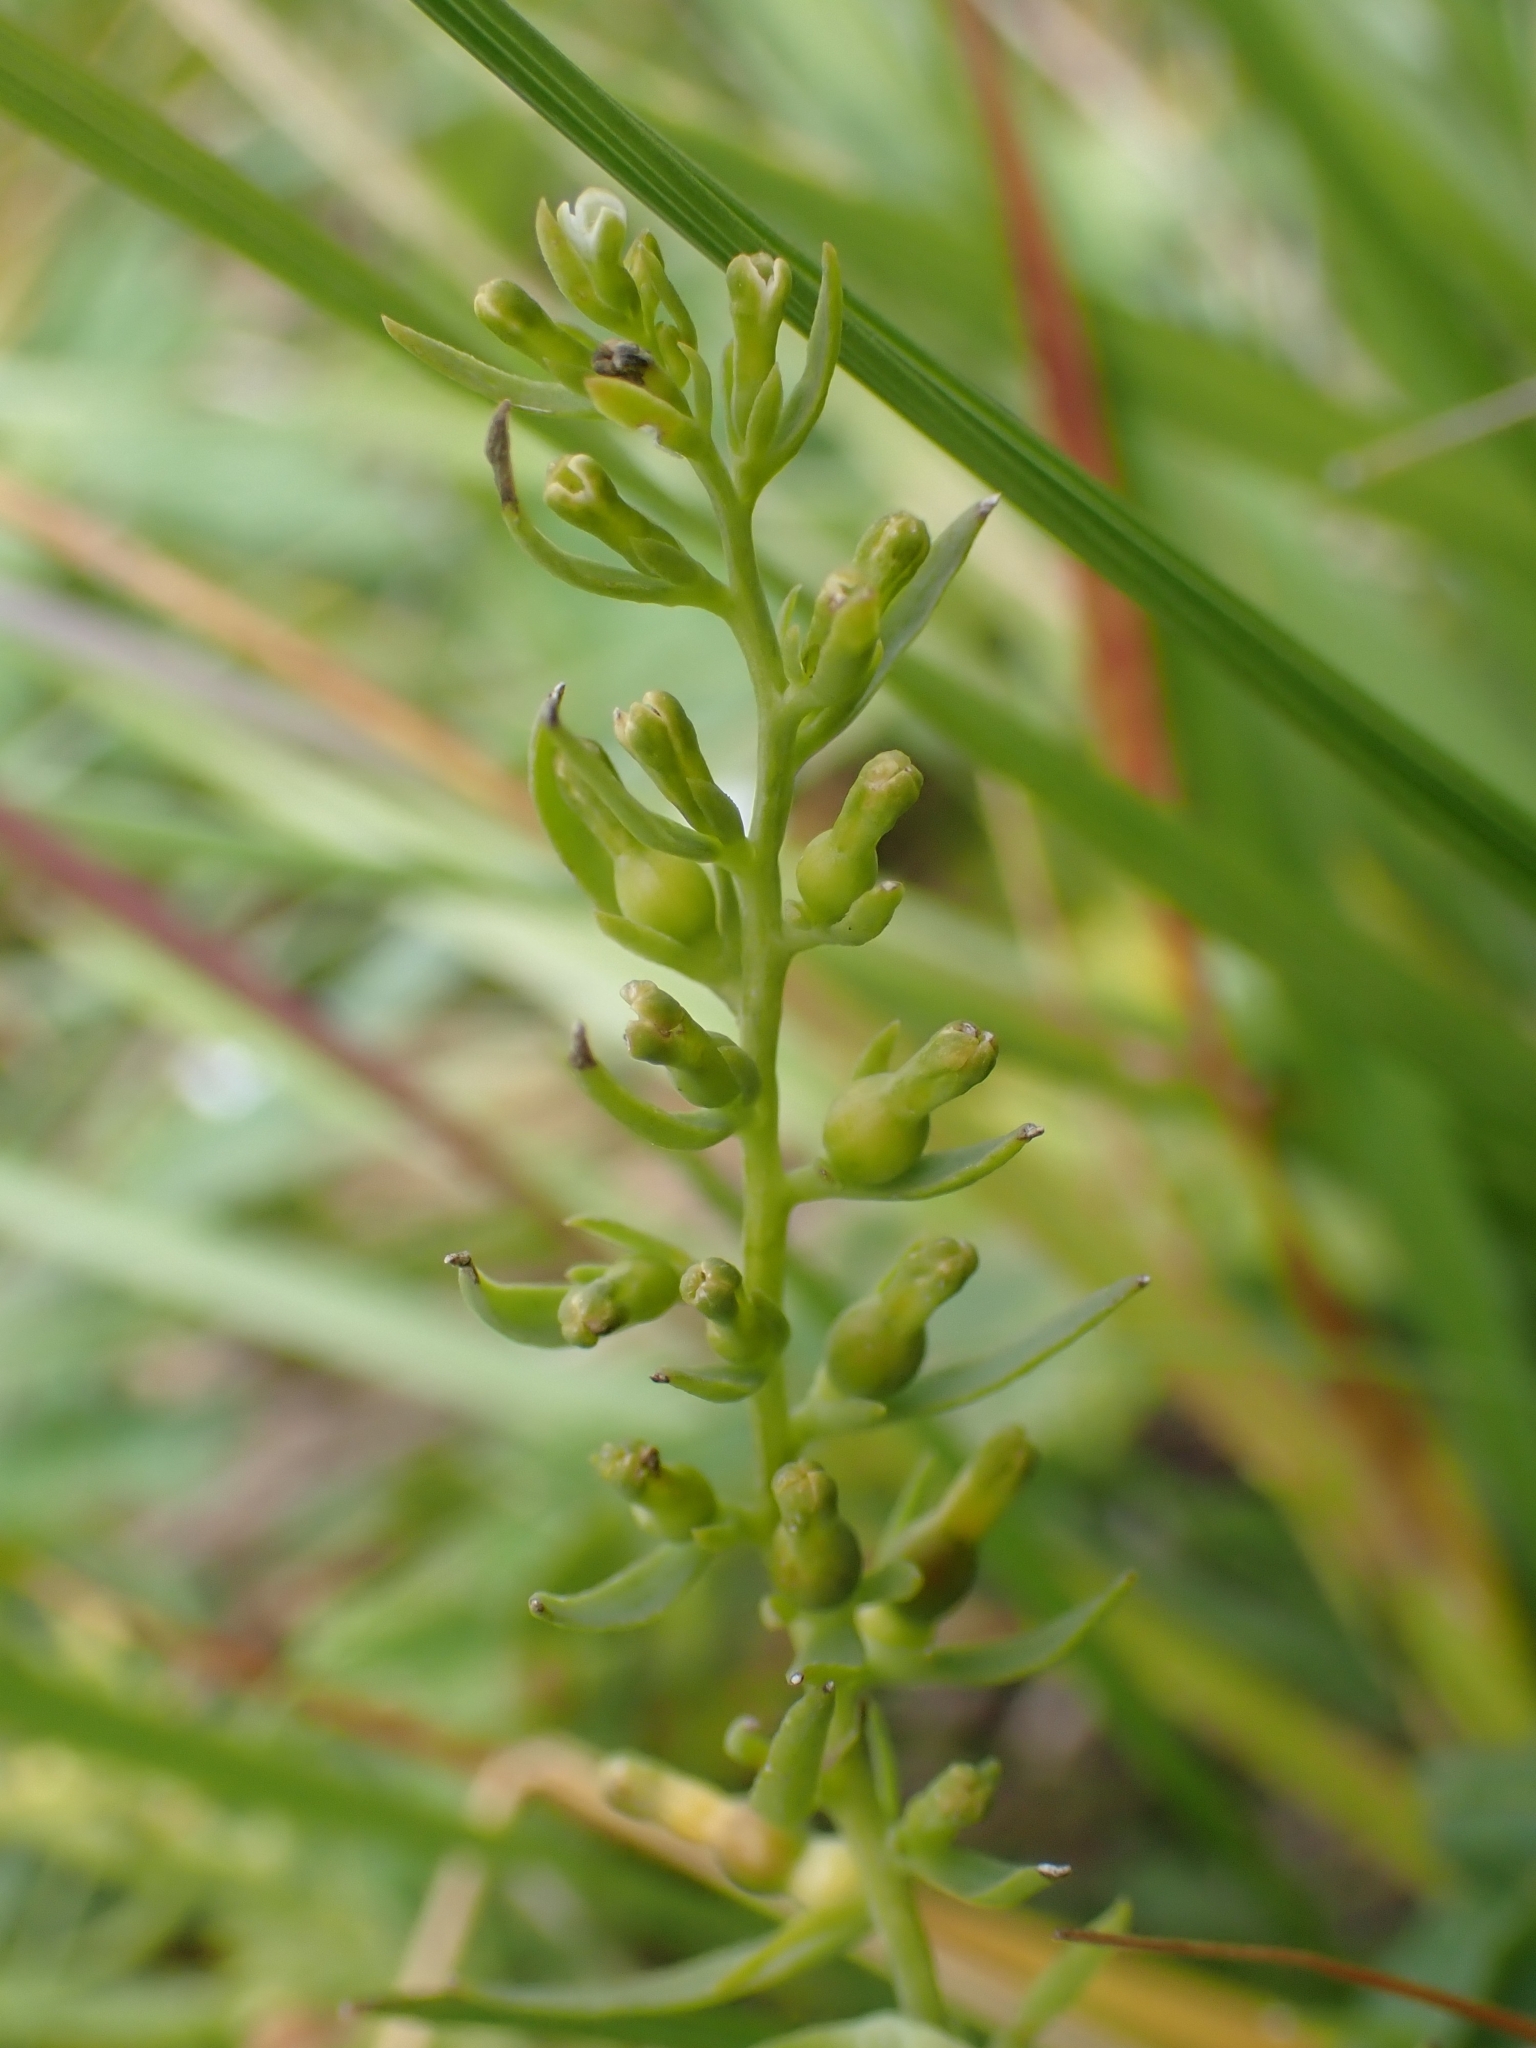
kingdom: Plantae
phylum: Tracheophyta
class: Magnoliopsida
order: Santalales
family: Thesiaceae
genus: Thesium
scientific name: Thesium alpinum
